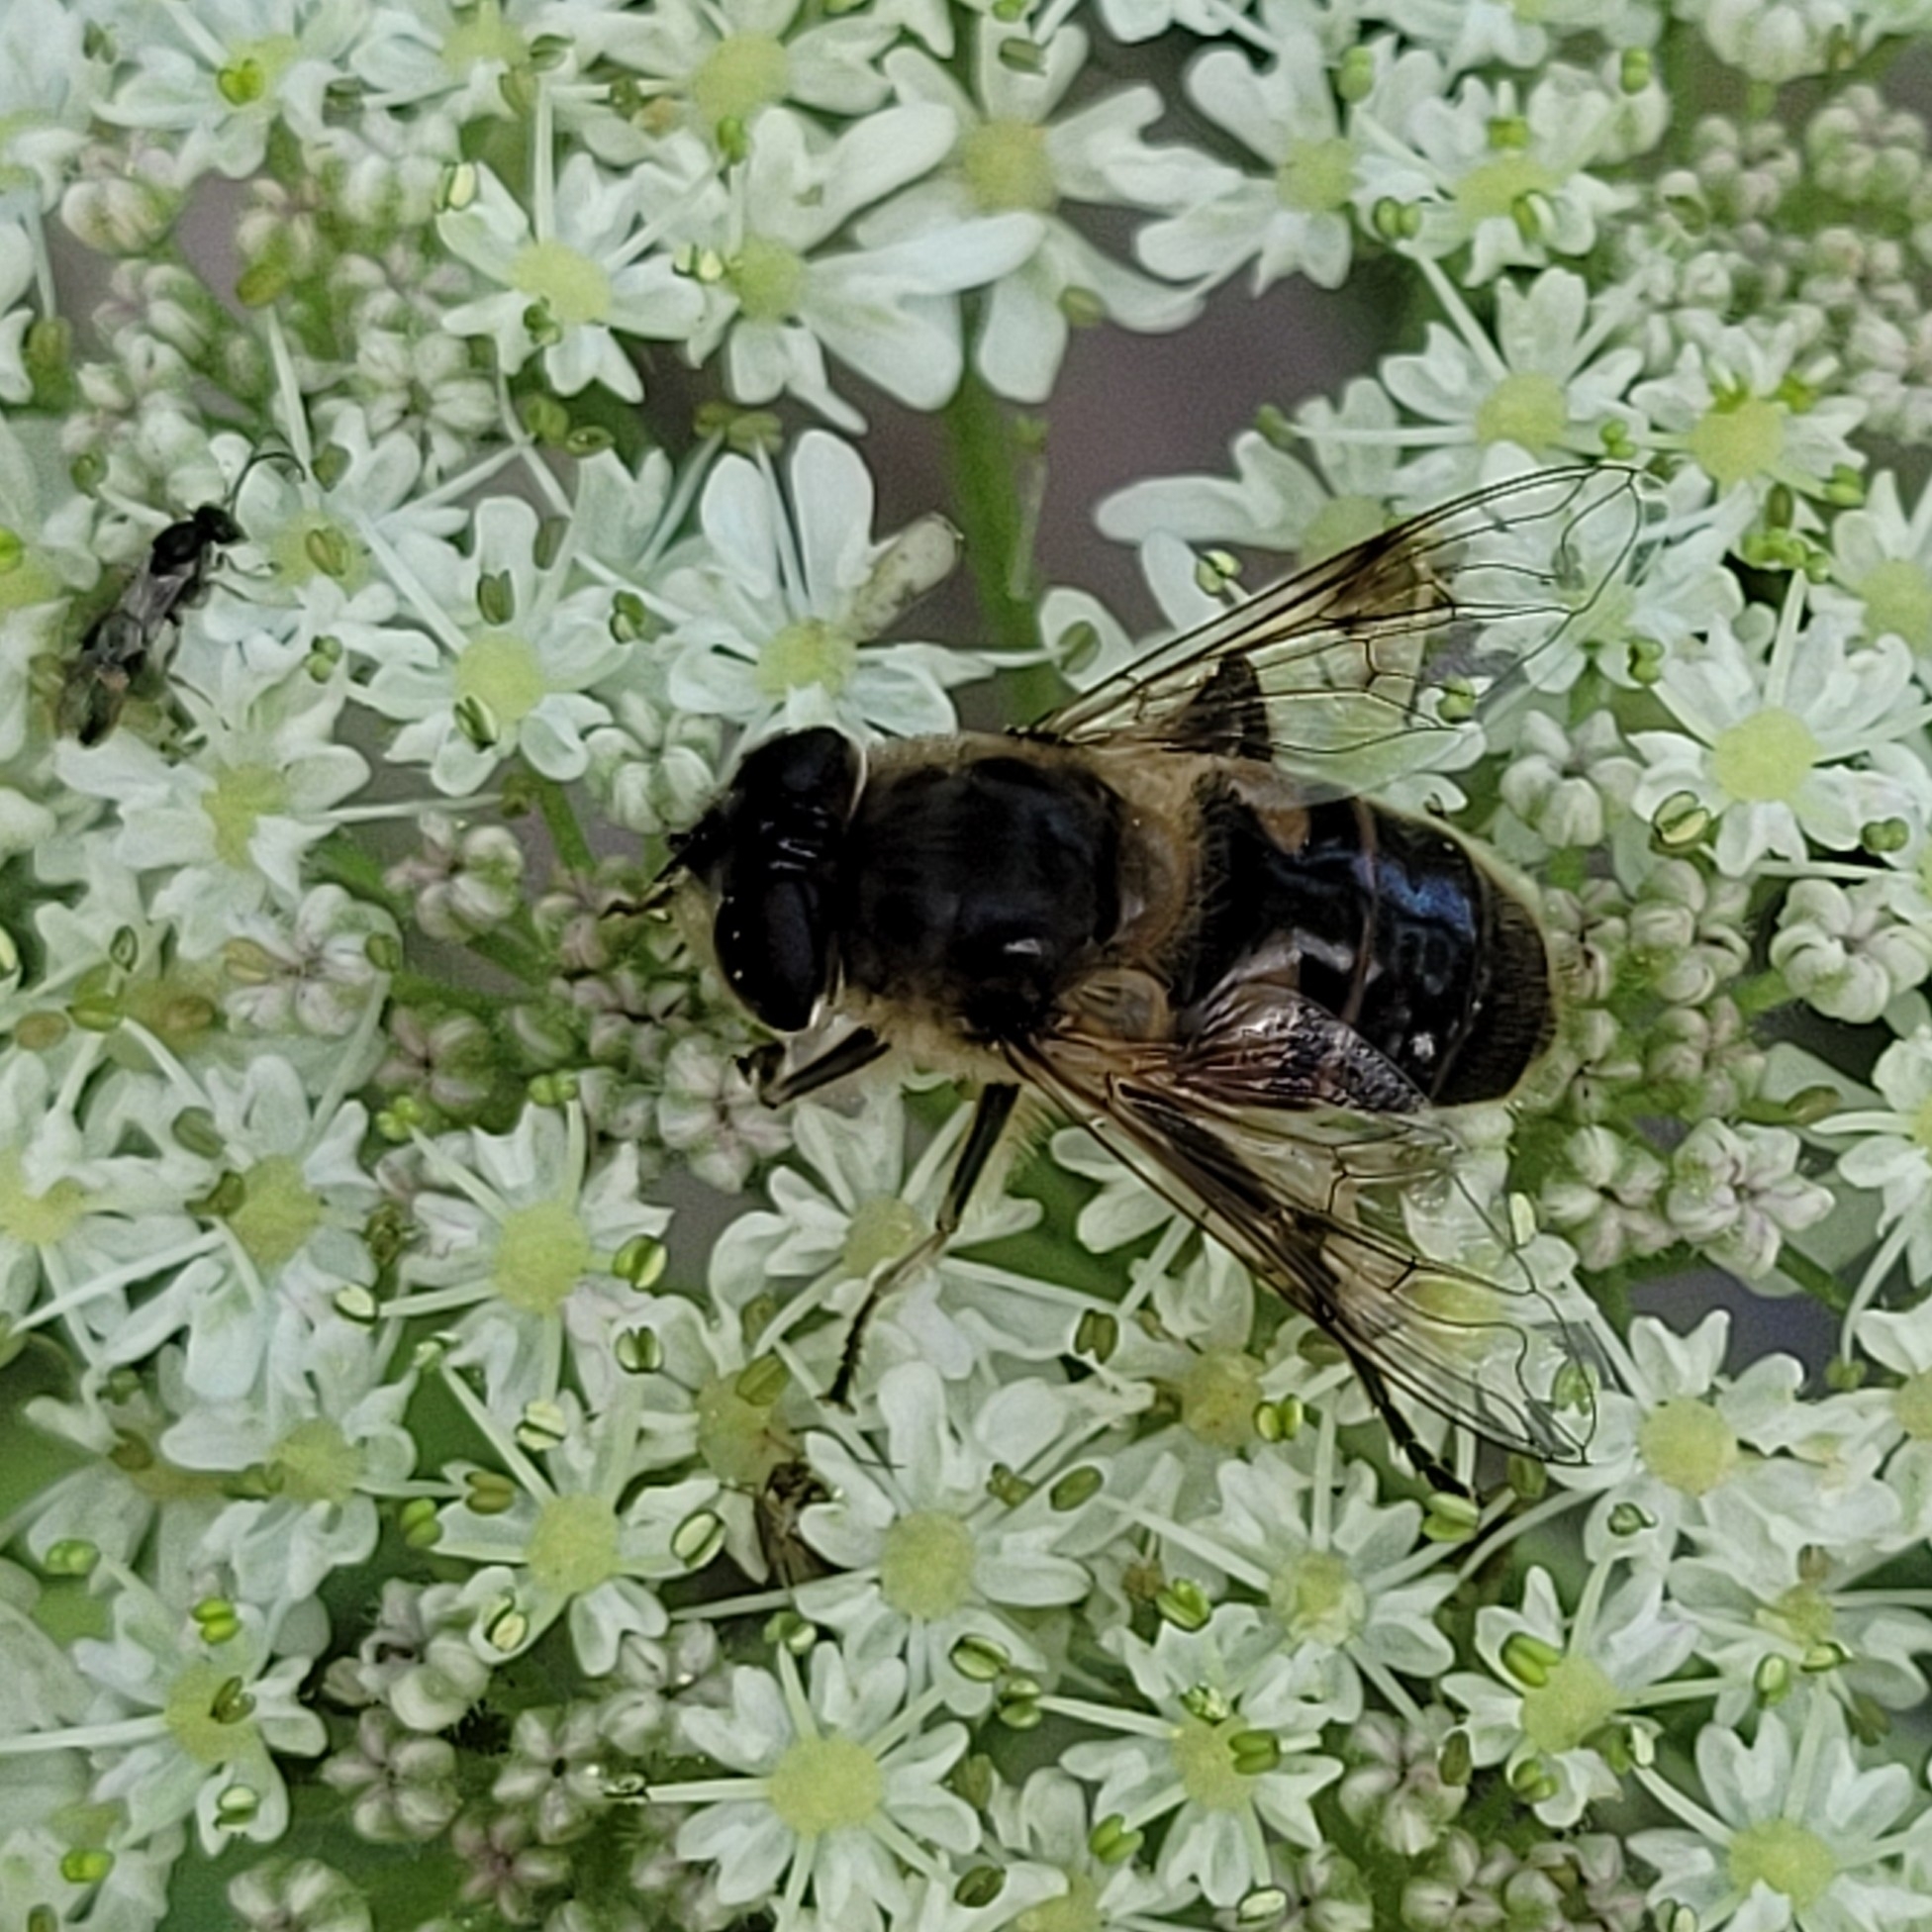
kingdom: Animalia
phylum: Arthropoda
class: Insecta
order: Diptera
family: Syrphidae
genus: Eristalis
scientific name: Eristalis tenax
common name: Drone fly
